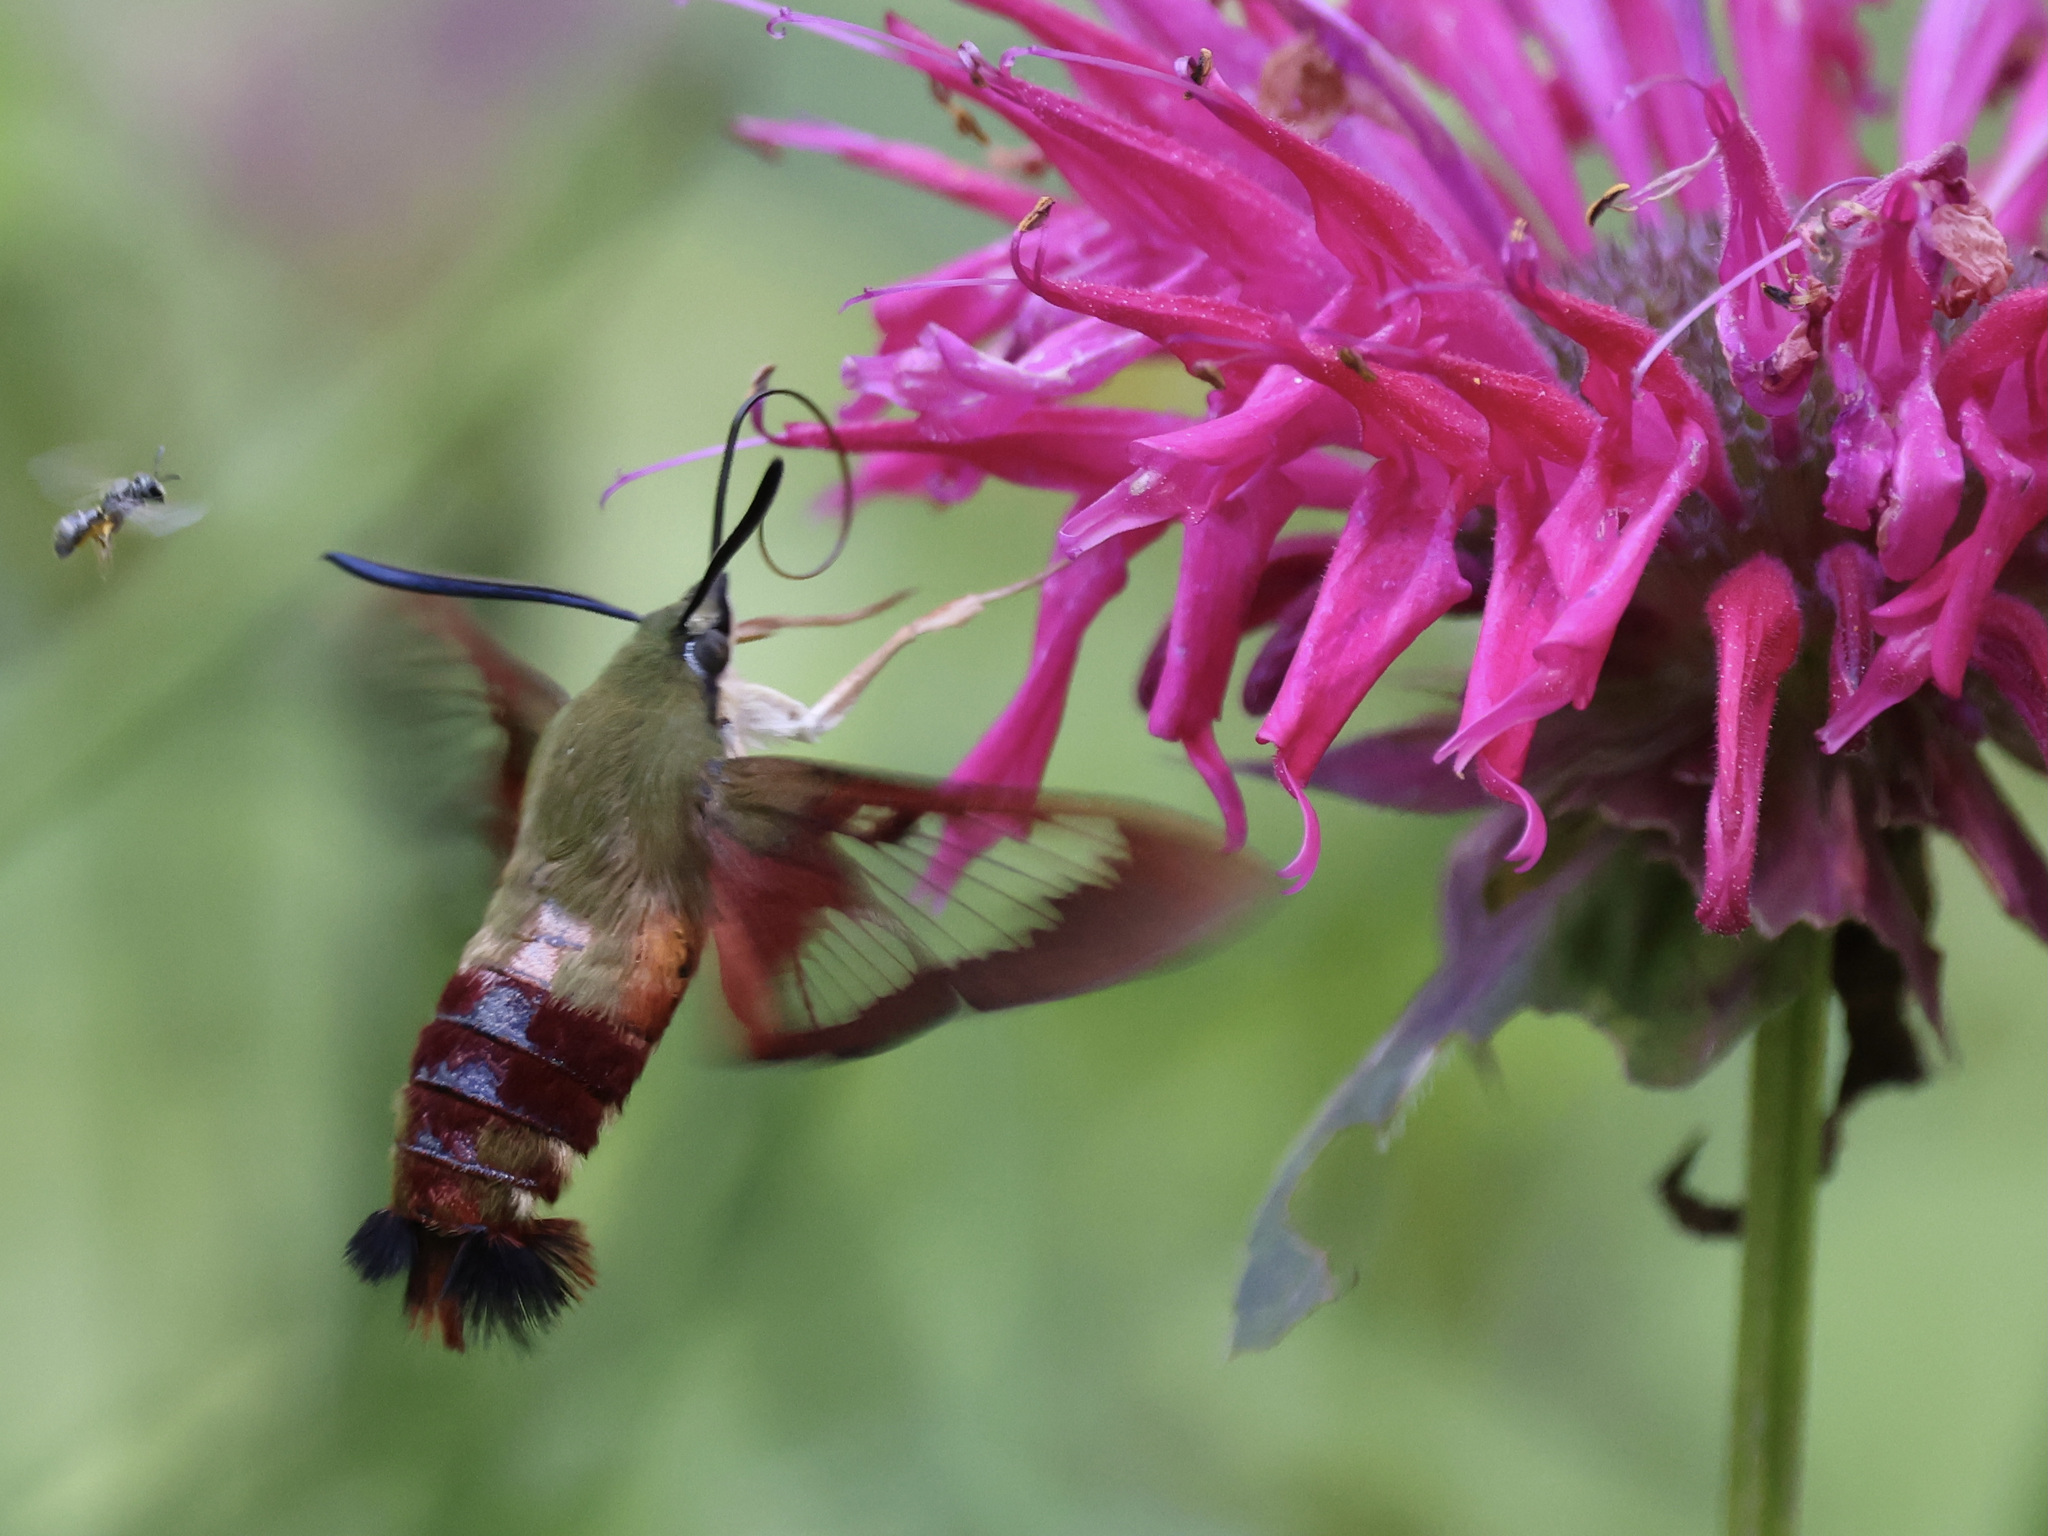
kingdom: Animalia
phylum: Arthropoda
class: Insecta
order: Lepidoptera
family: Sphingidae
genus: Hemaris
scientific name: Hemaris thysbe
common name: Common clear-wing
